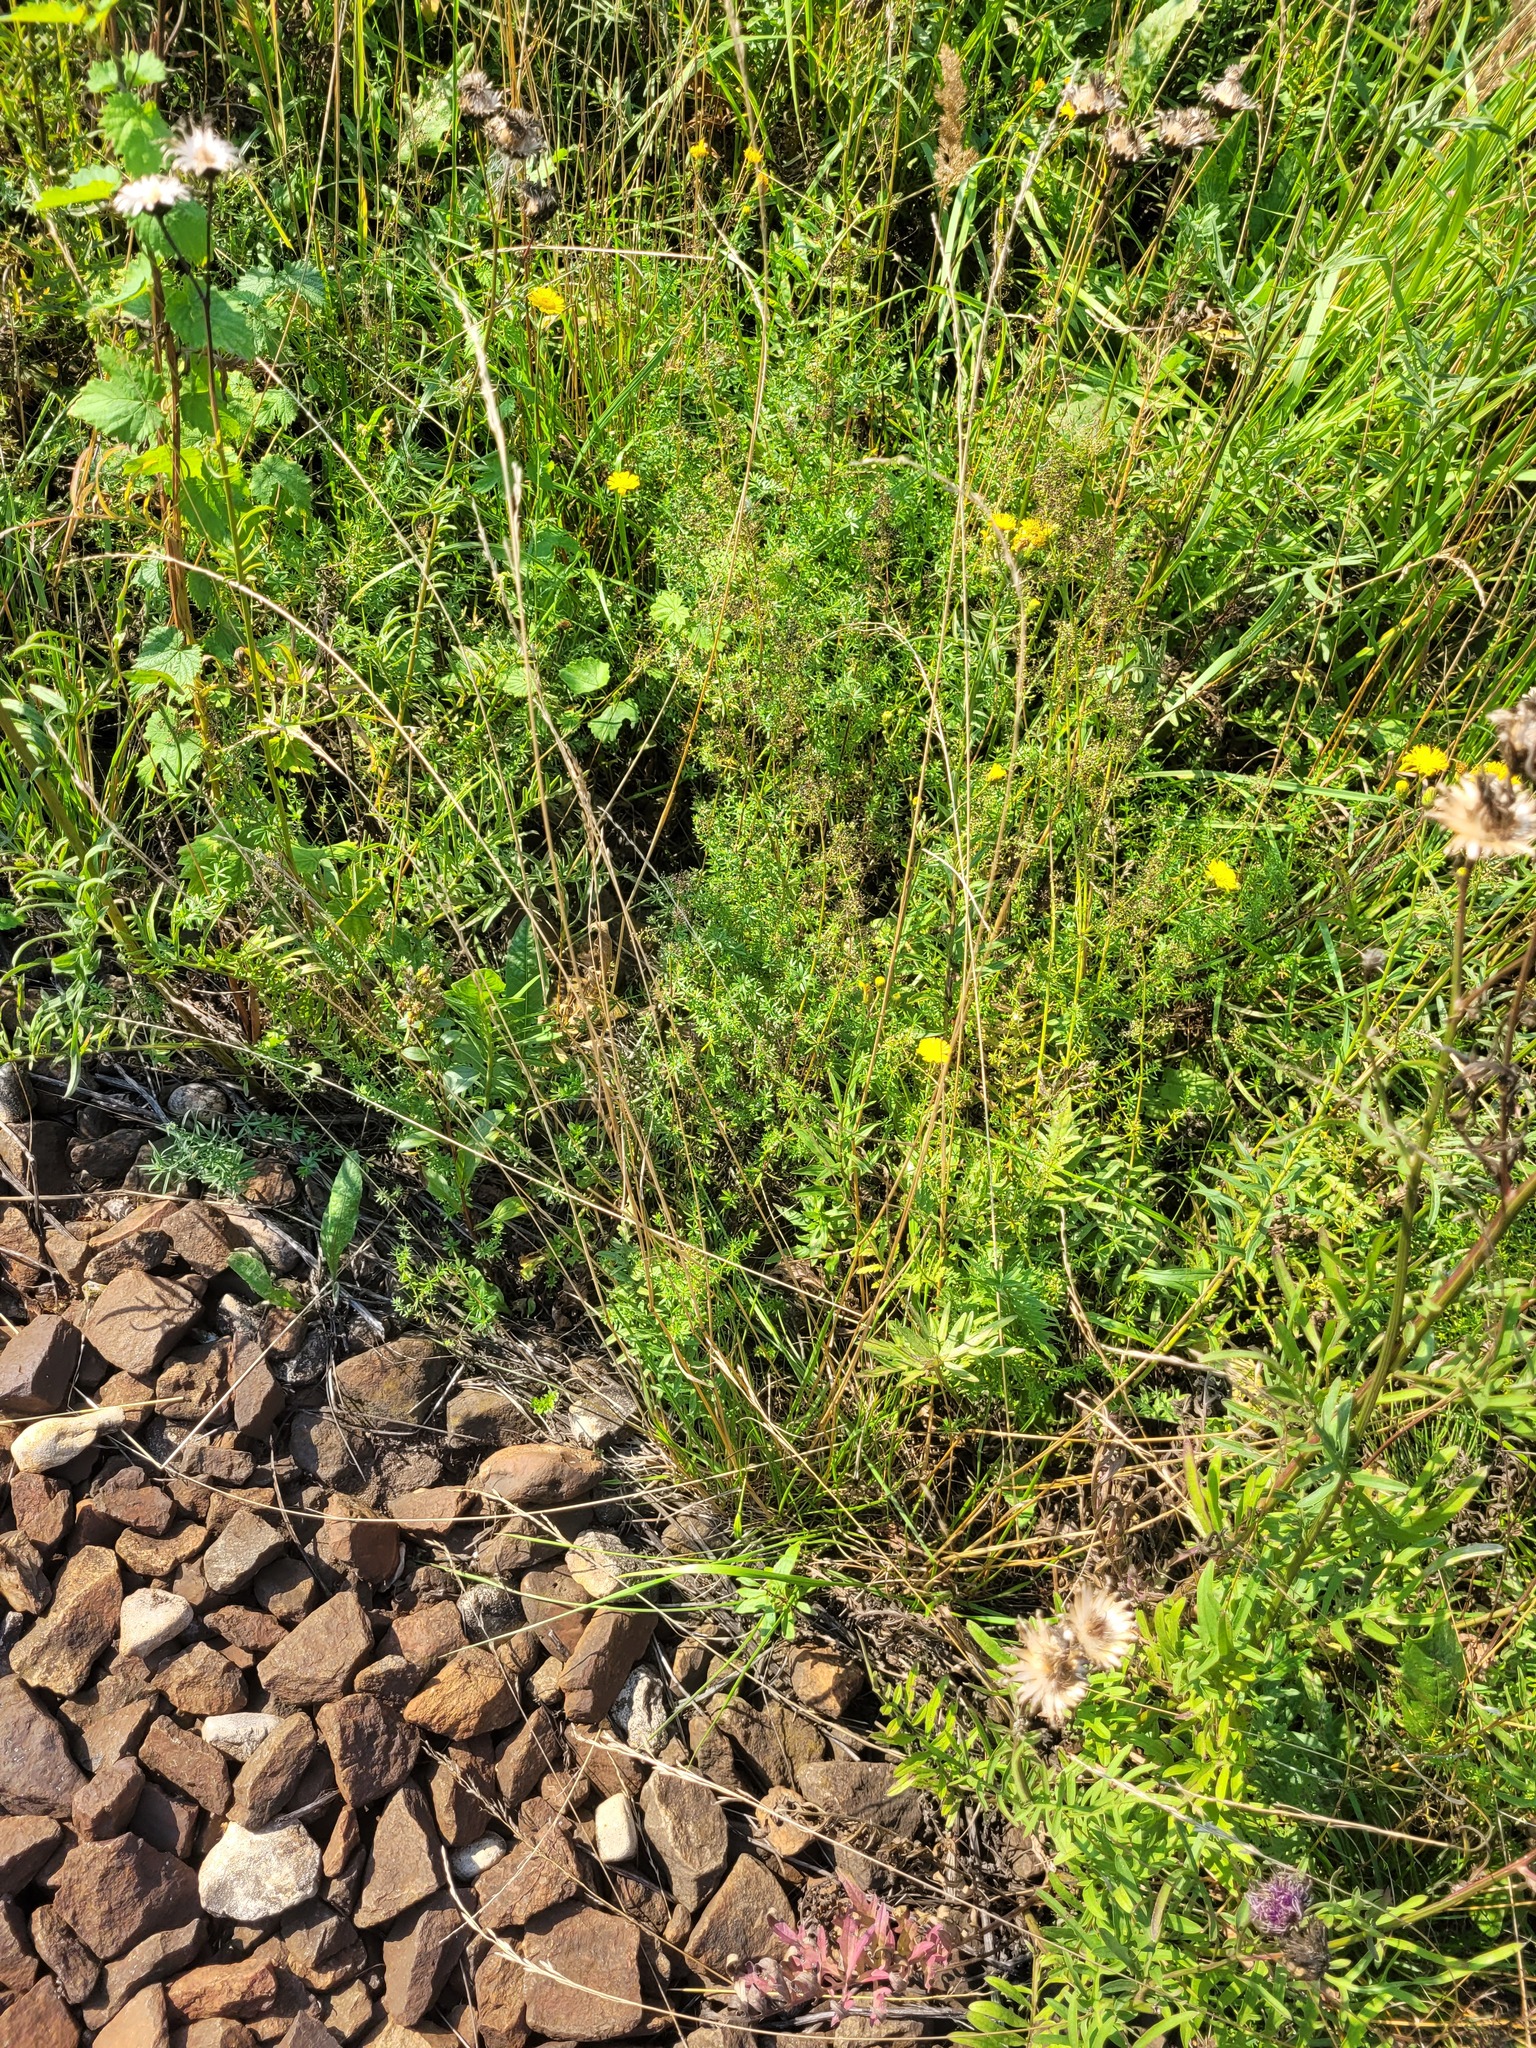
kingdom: Plantae
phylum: Tracheophyta
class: Liliopsida
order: Poales
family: Poaceae
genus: Lolium
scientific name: Lolium pratense
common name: Dover grass
